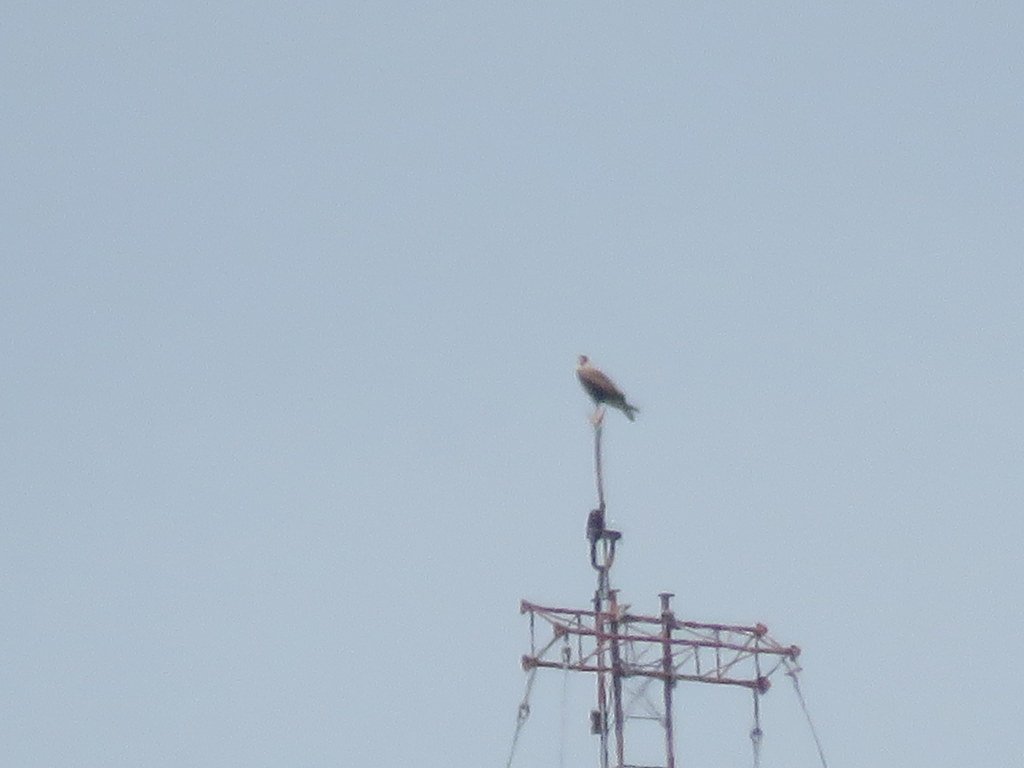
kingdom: Animalia
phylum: Chordata
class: Aves
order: Falconiformes
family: Falconidae
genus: Caracara
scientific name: Caracara plancus
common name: Southern caracara
